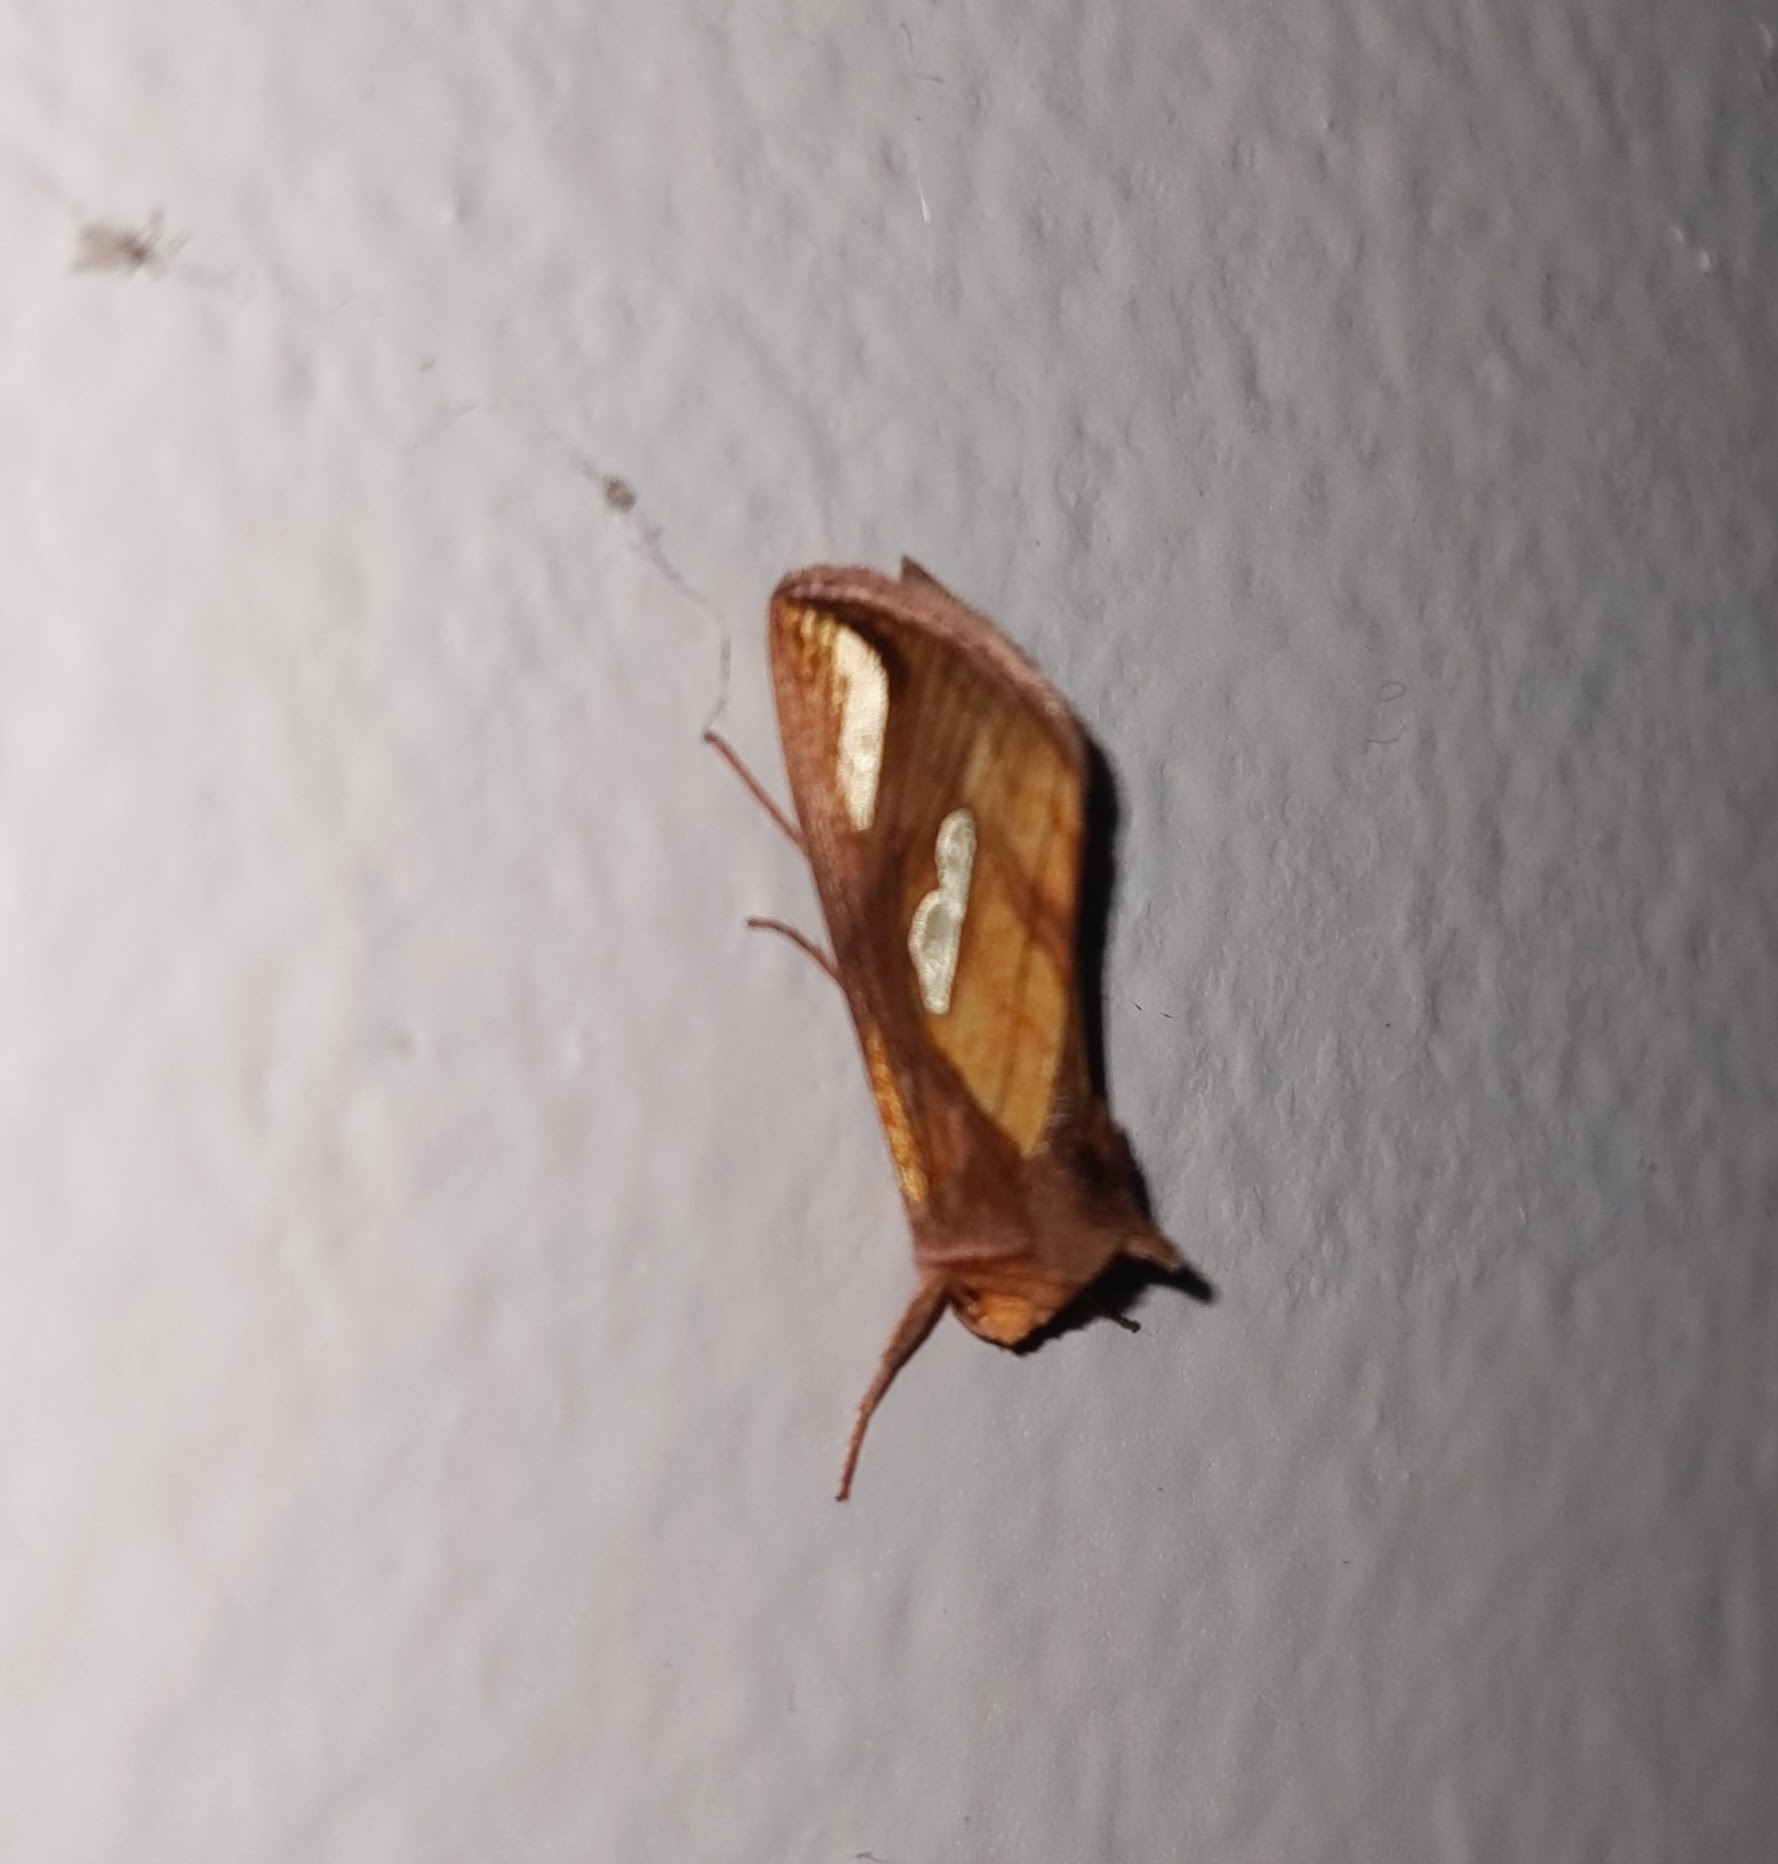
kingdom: Animalia
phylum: Arthropoda
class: Insecta
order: Lepidoptera
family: Noctuidae
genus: Plusia
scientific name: Plusia contexta
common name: Connected looper moth
